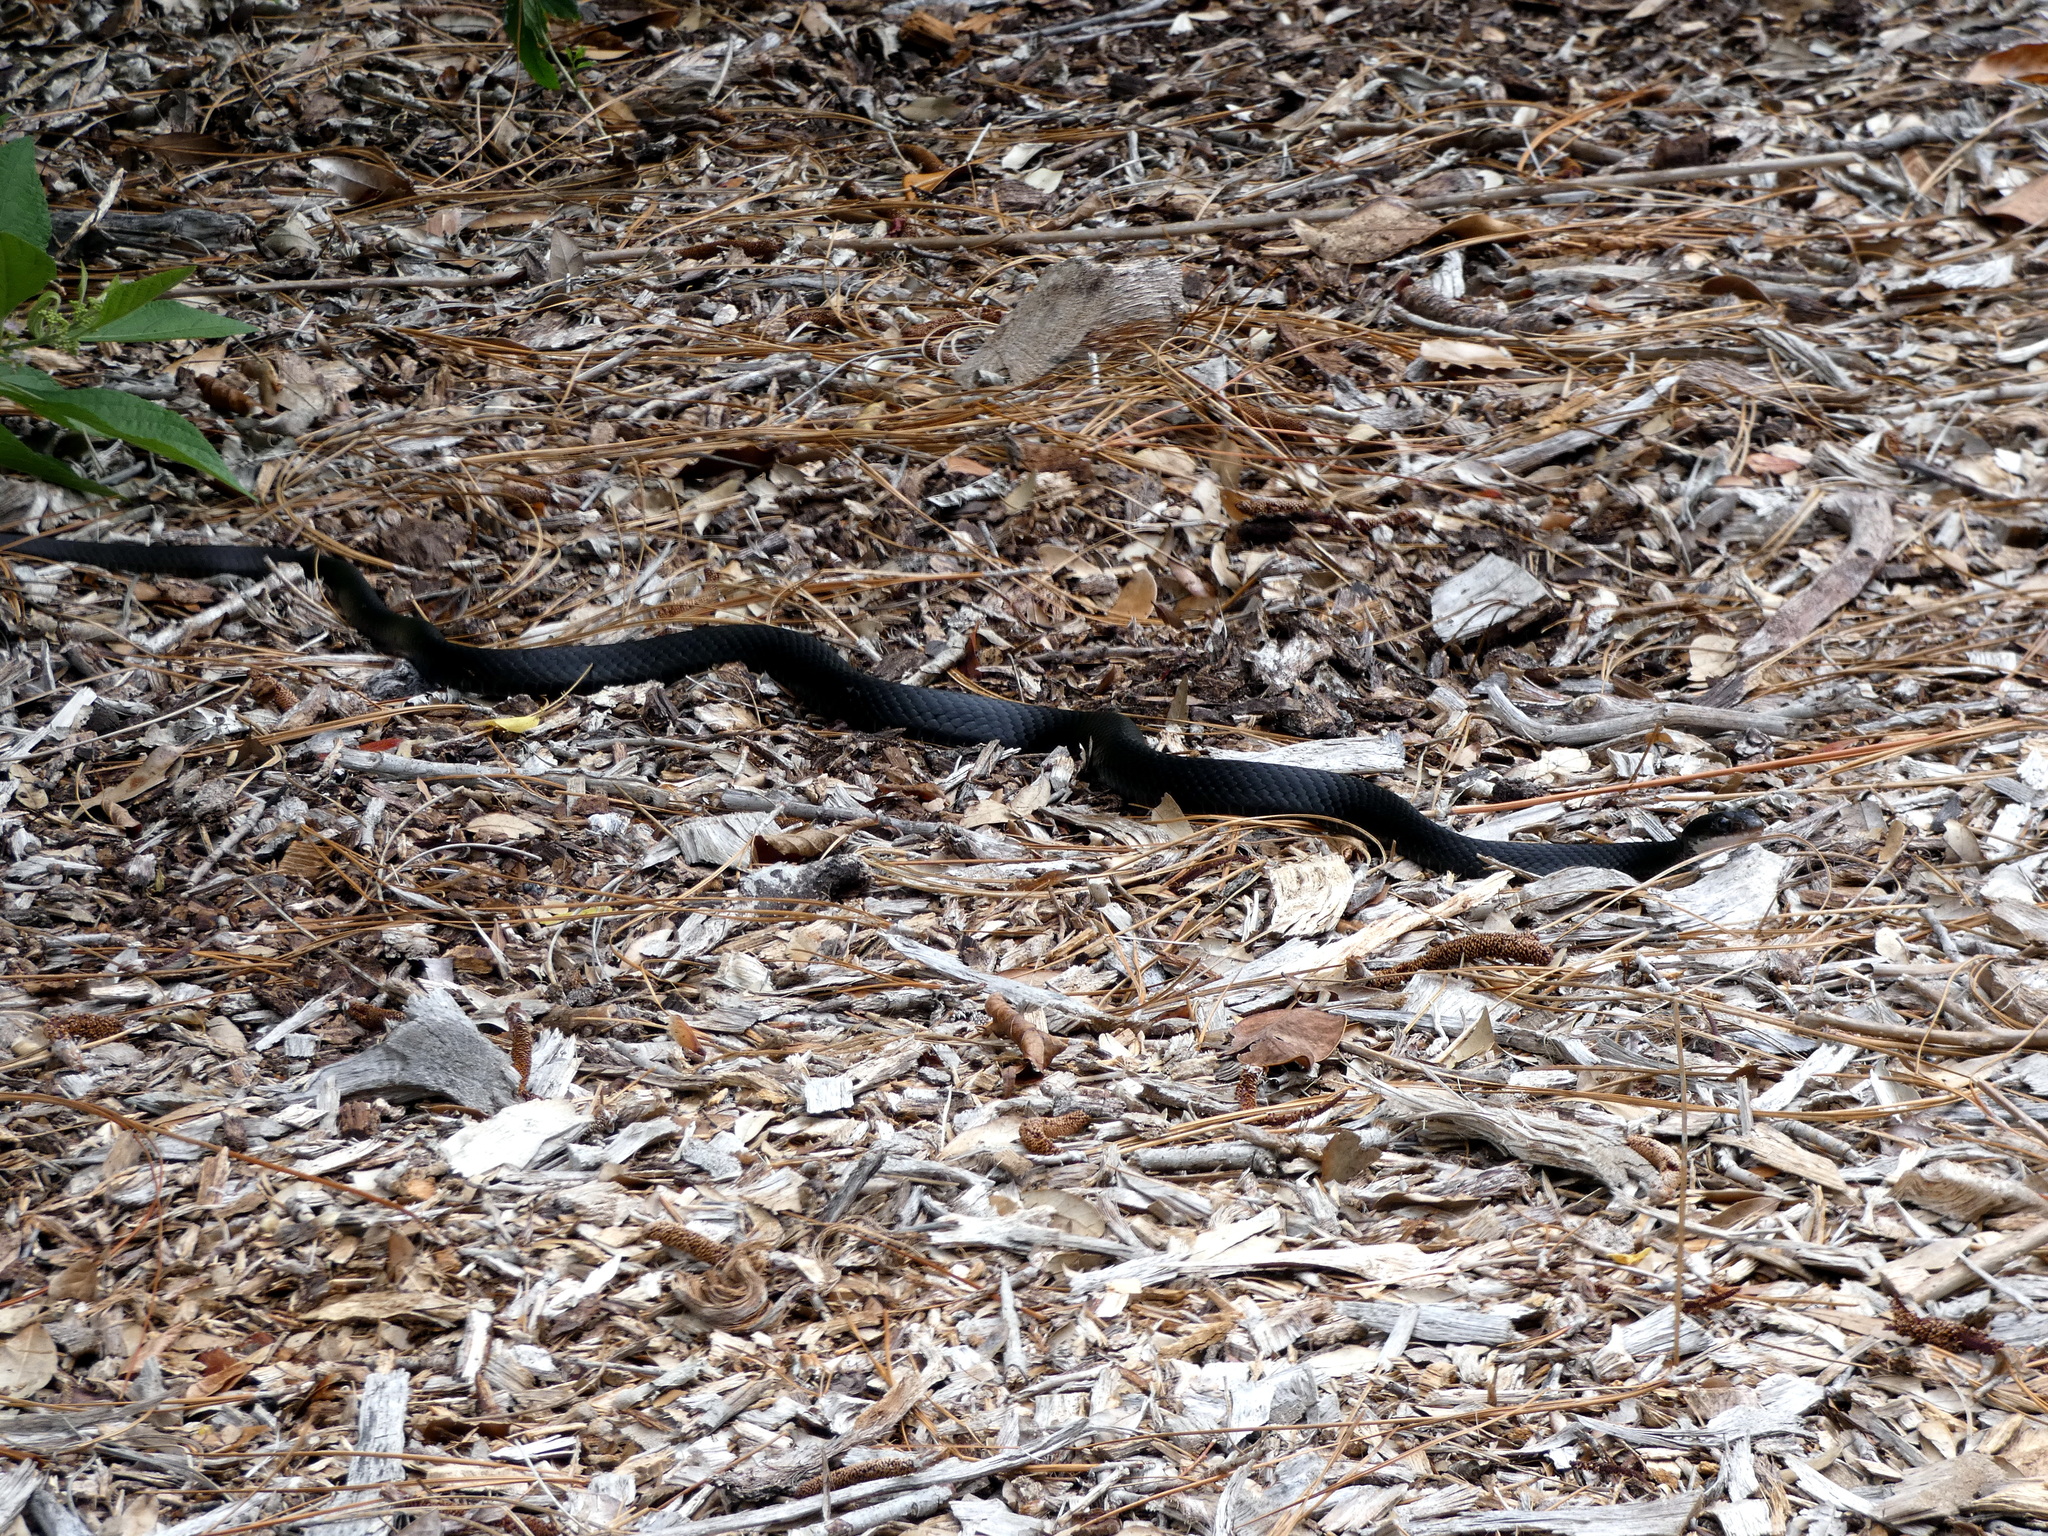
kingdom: Animalia
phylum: Chordata
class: Squamata
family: Colubridae
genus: Coluber
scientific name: Coluber constrictor
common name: Eastern racer
